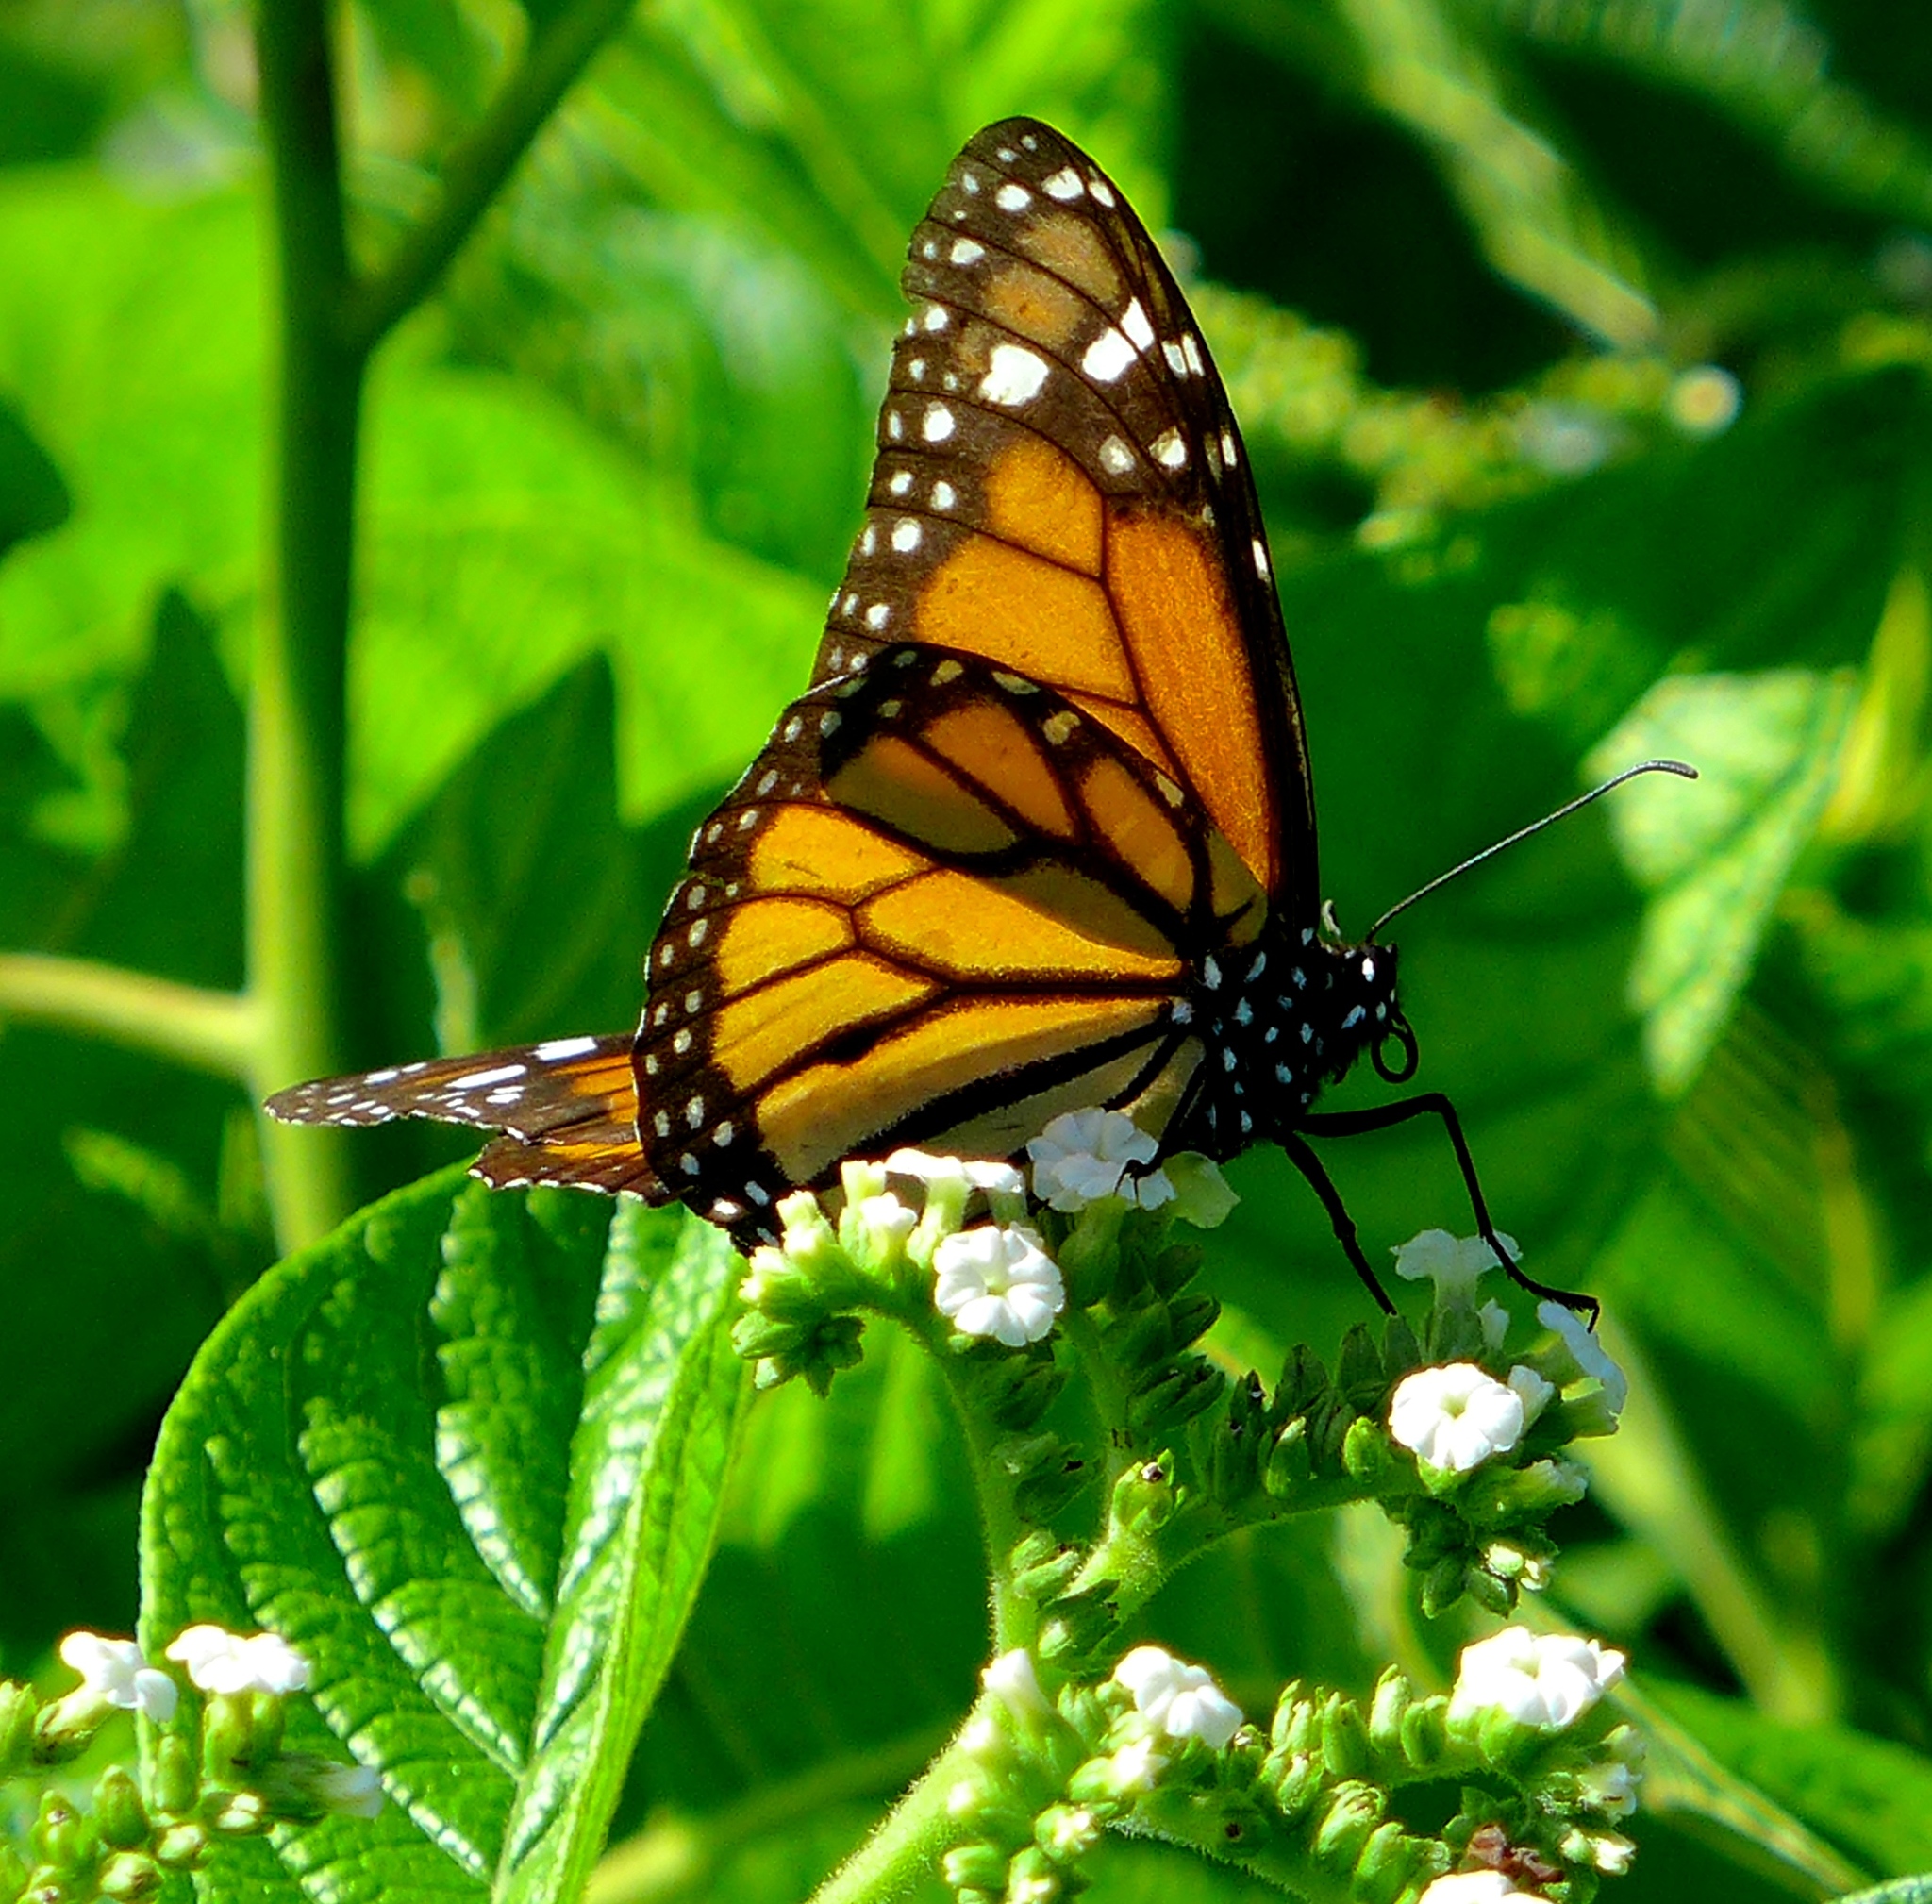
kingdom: Animalia
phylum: Arthropoda
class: Insecta
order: Lepidoptera
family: Nymphalidae
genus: Danaus
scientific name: Danaus plexippus
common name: Monarch
